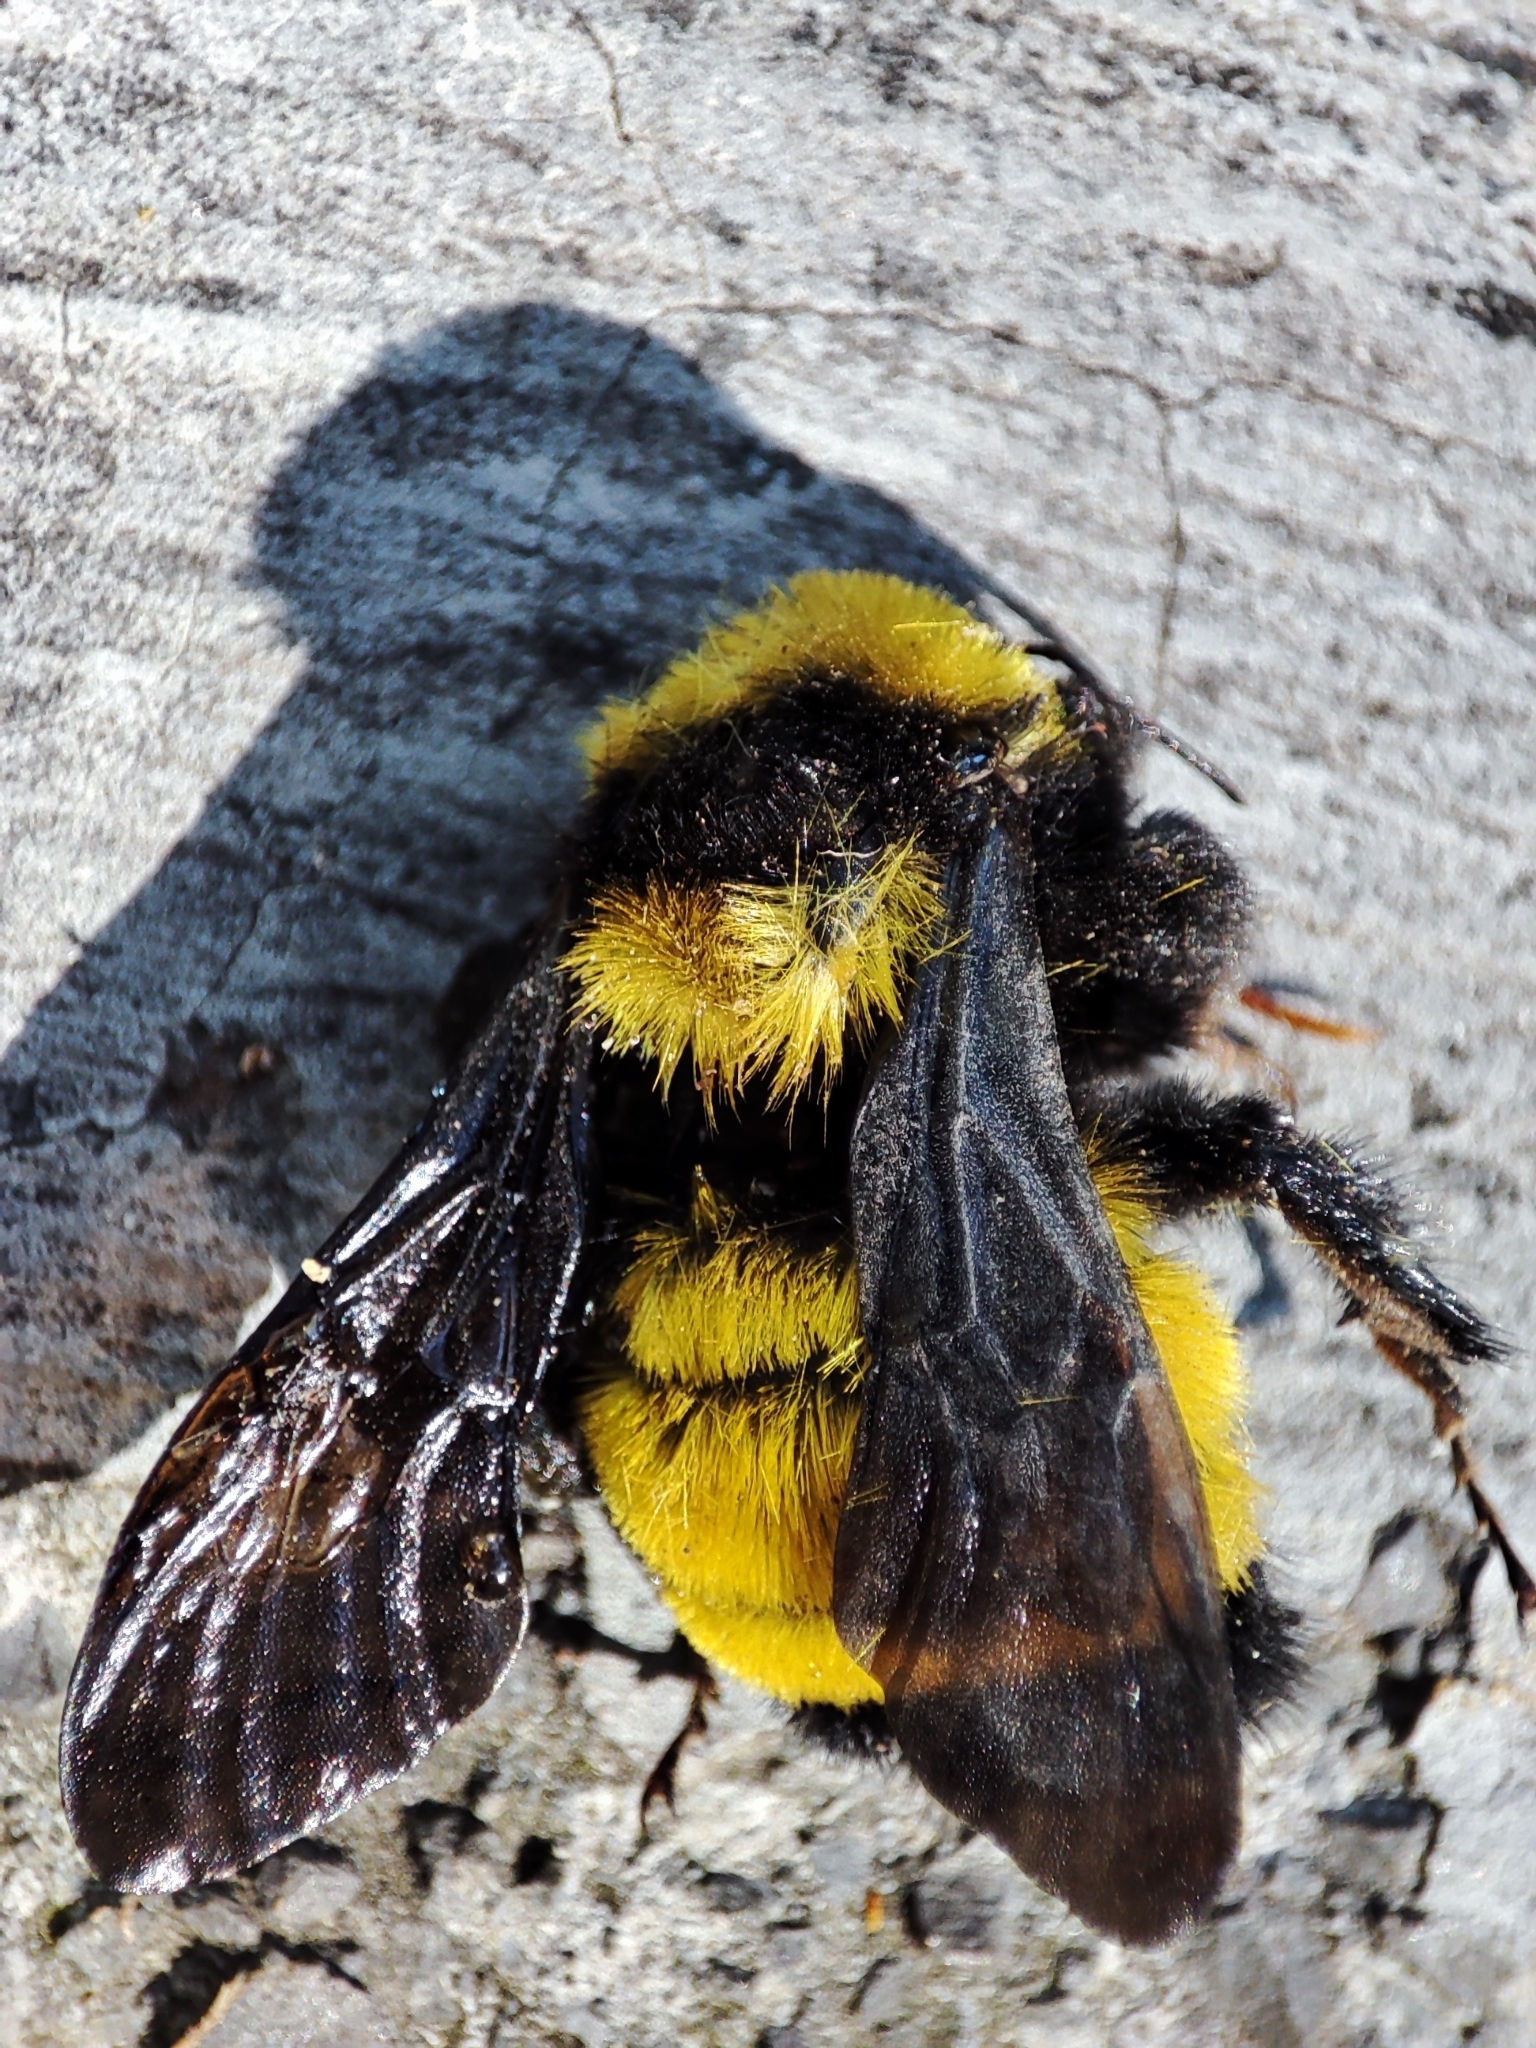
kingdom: Animalia
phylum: Arthropoda
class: Insecta
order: Hymenoptera
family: Apidae
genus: Bombus
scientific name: Bombus sonorus
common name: Sonoran bumble bee
